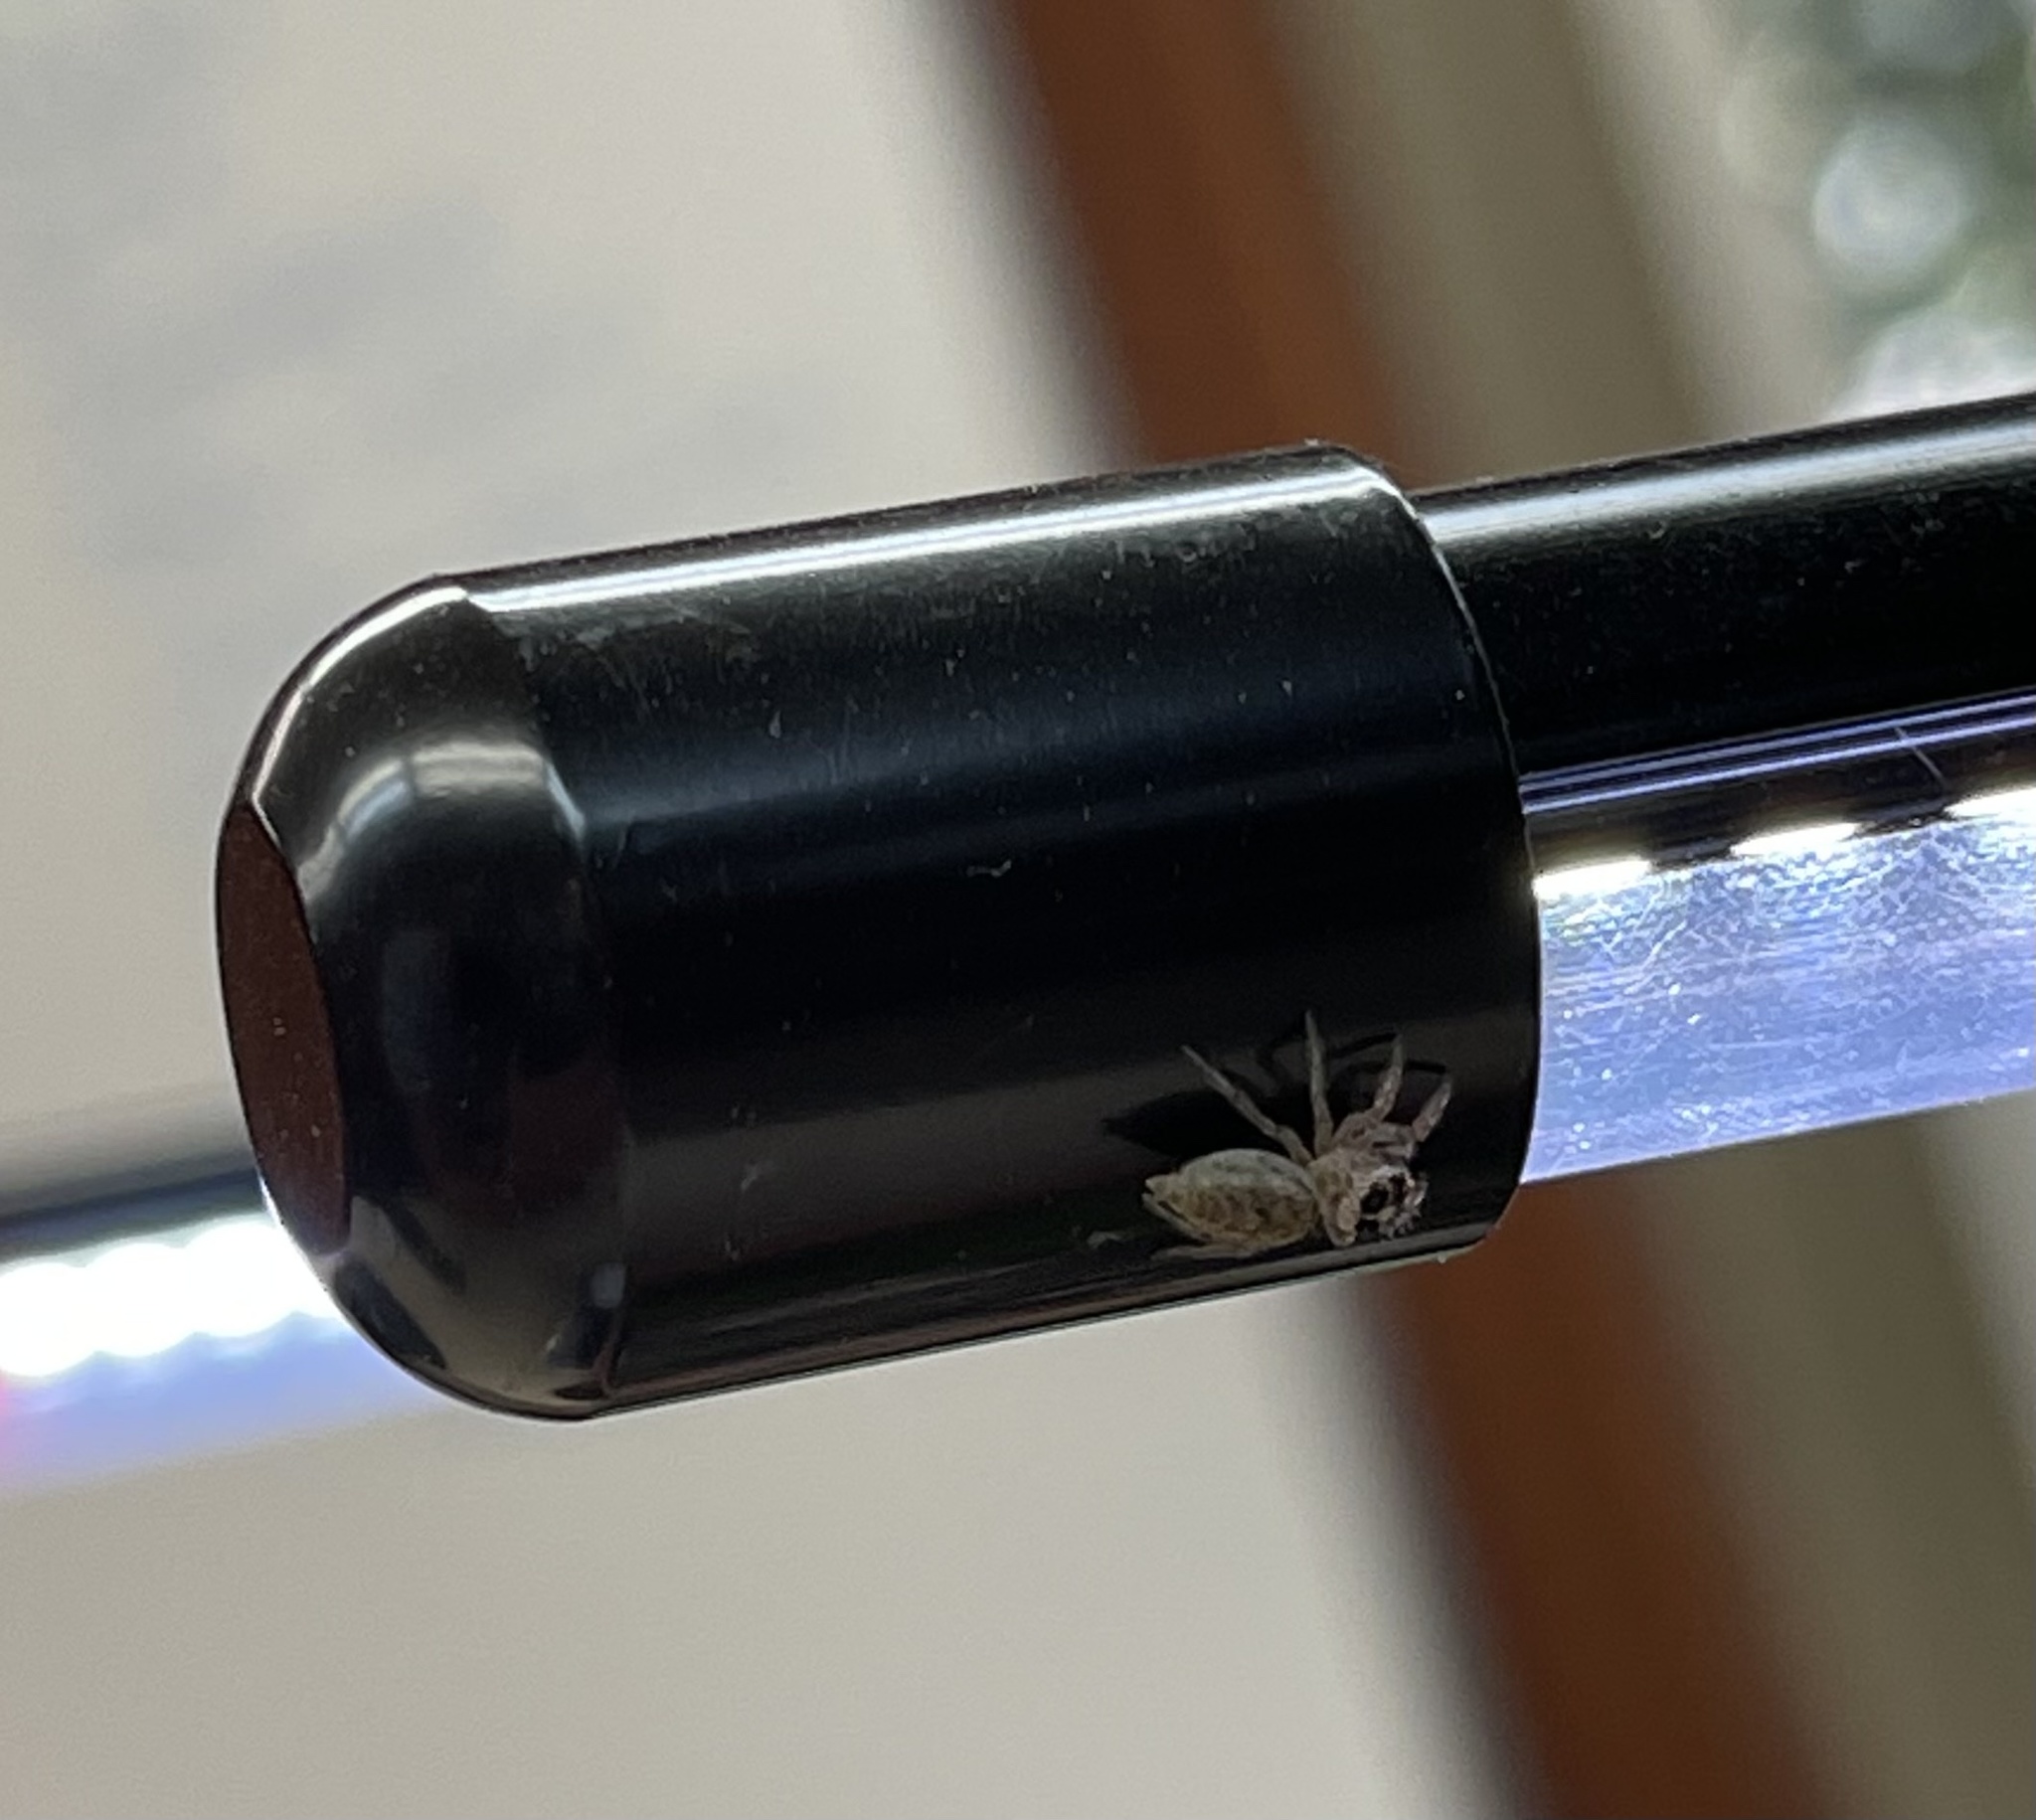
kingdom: Animalia
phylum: Arthropoda
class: Arachnida
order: Araneae
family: Salticidae
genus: Colonus
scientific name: Colonus hesperus
